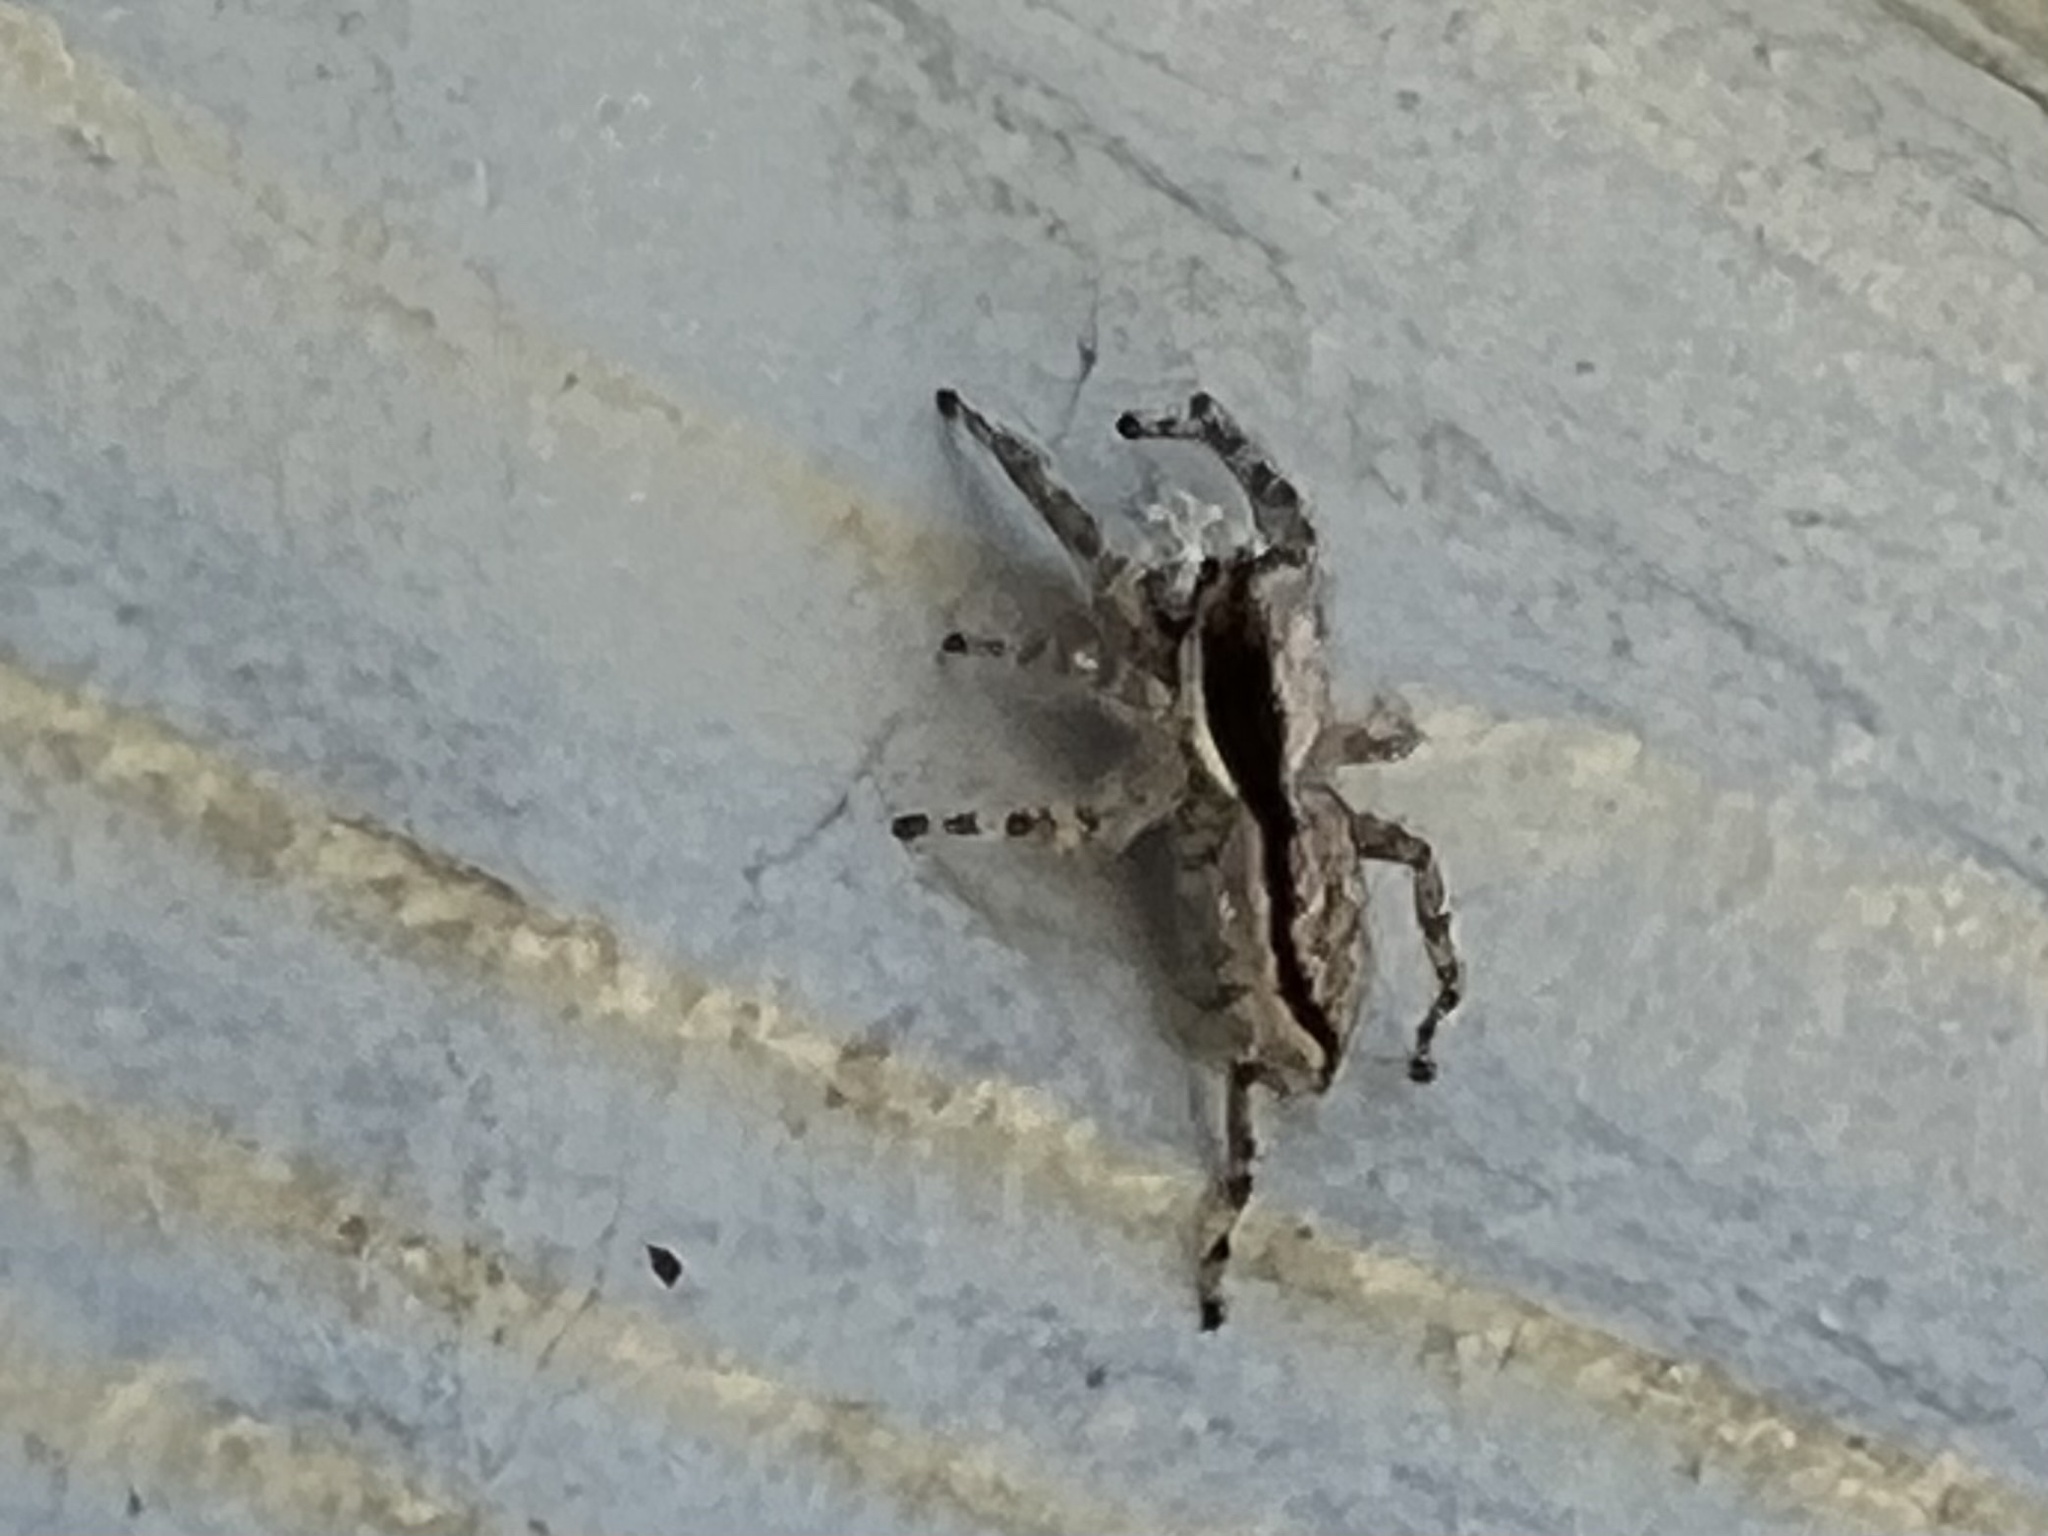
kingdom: Animalia
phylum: Arthropoda
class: Arachnida
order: Araneae
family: Salticidae
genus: Menemerus
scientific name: Menemerus bivittatus
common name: Gray wall jumper
